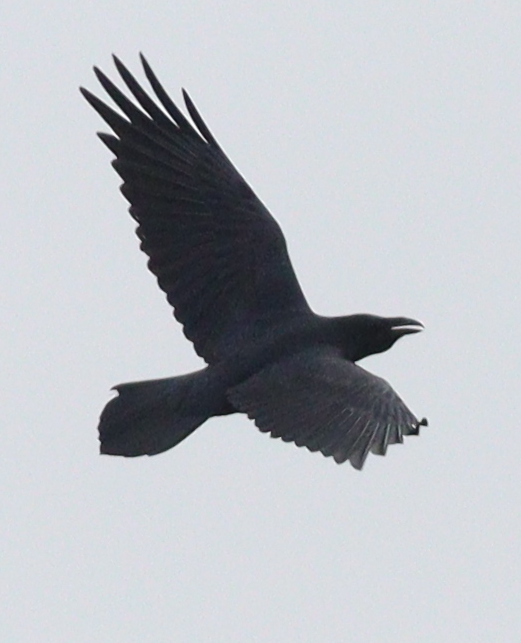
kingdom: Animalia
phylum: Chordata
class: Aves
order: Passeriformes
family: Corvidae
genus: Corvus
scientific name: Corvus corax
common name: Common raven
